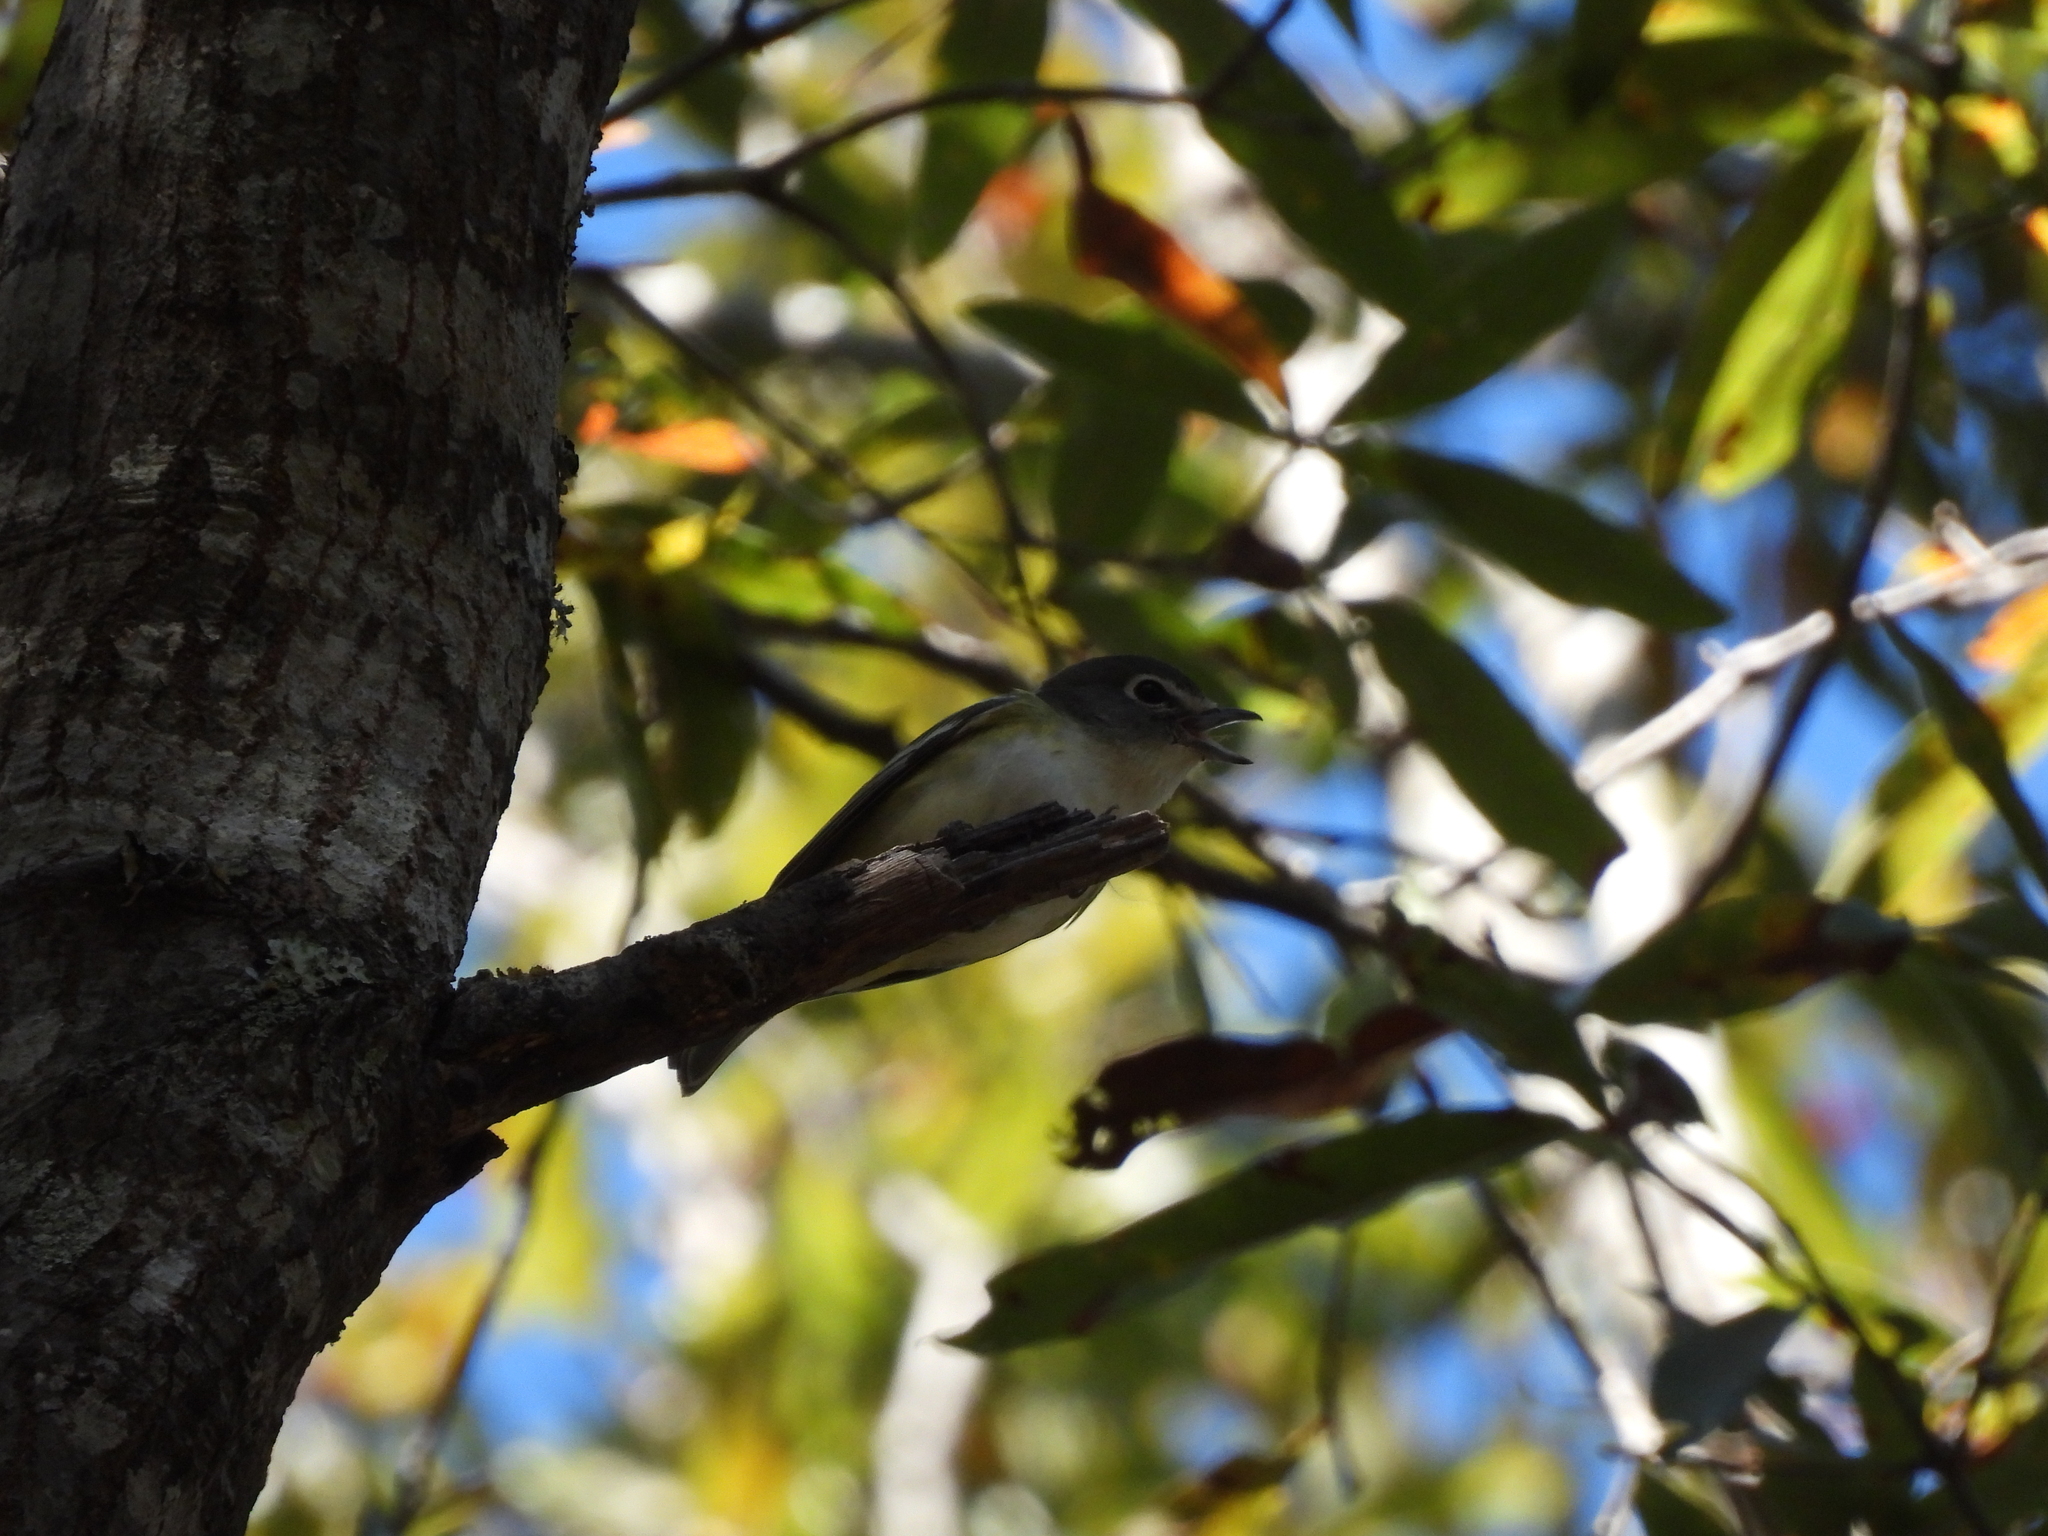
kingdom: Animalia
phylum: Chordata
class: Aves
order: Passeriformes
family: Vireonidae
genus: Vireo
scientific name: Vireo solitarius
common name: Blue-headed vireo
